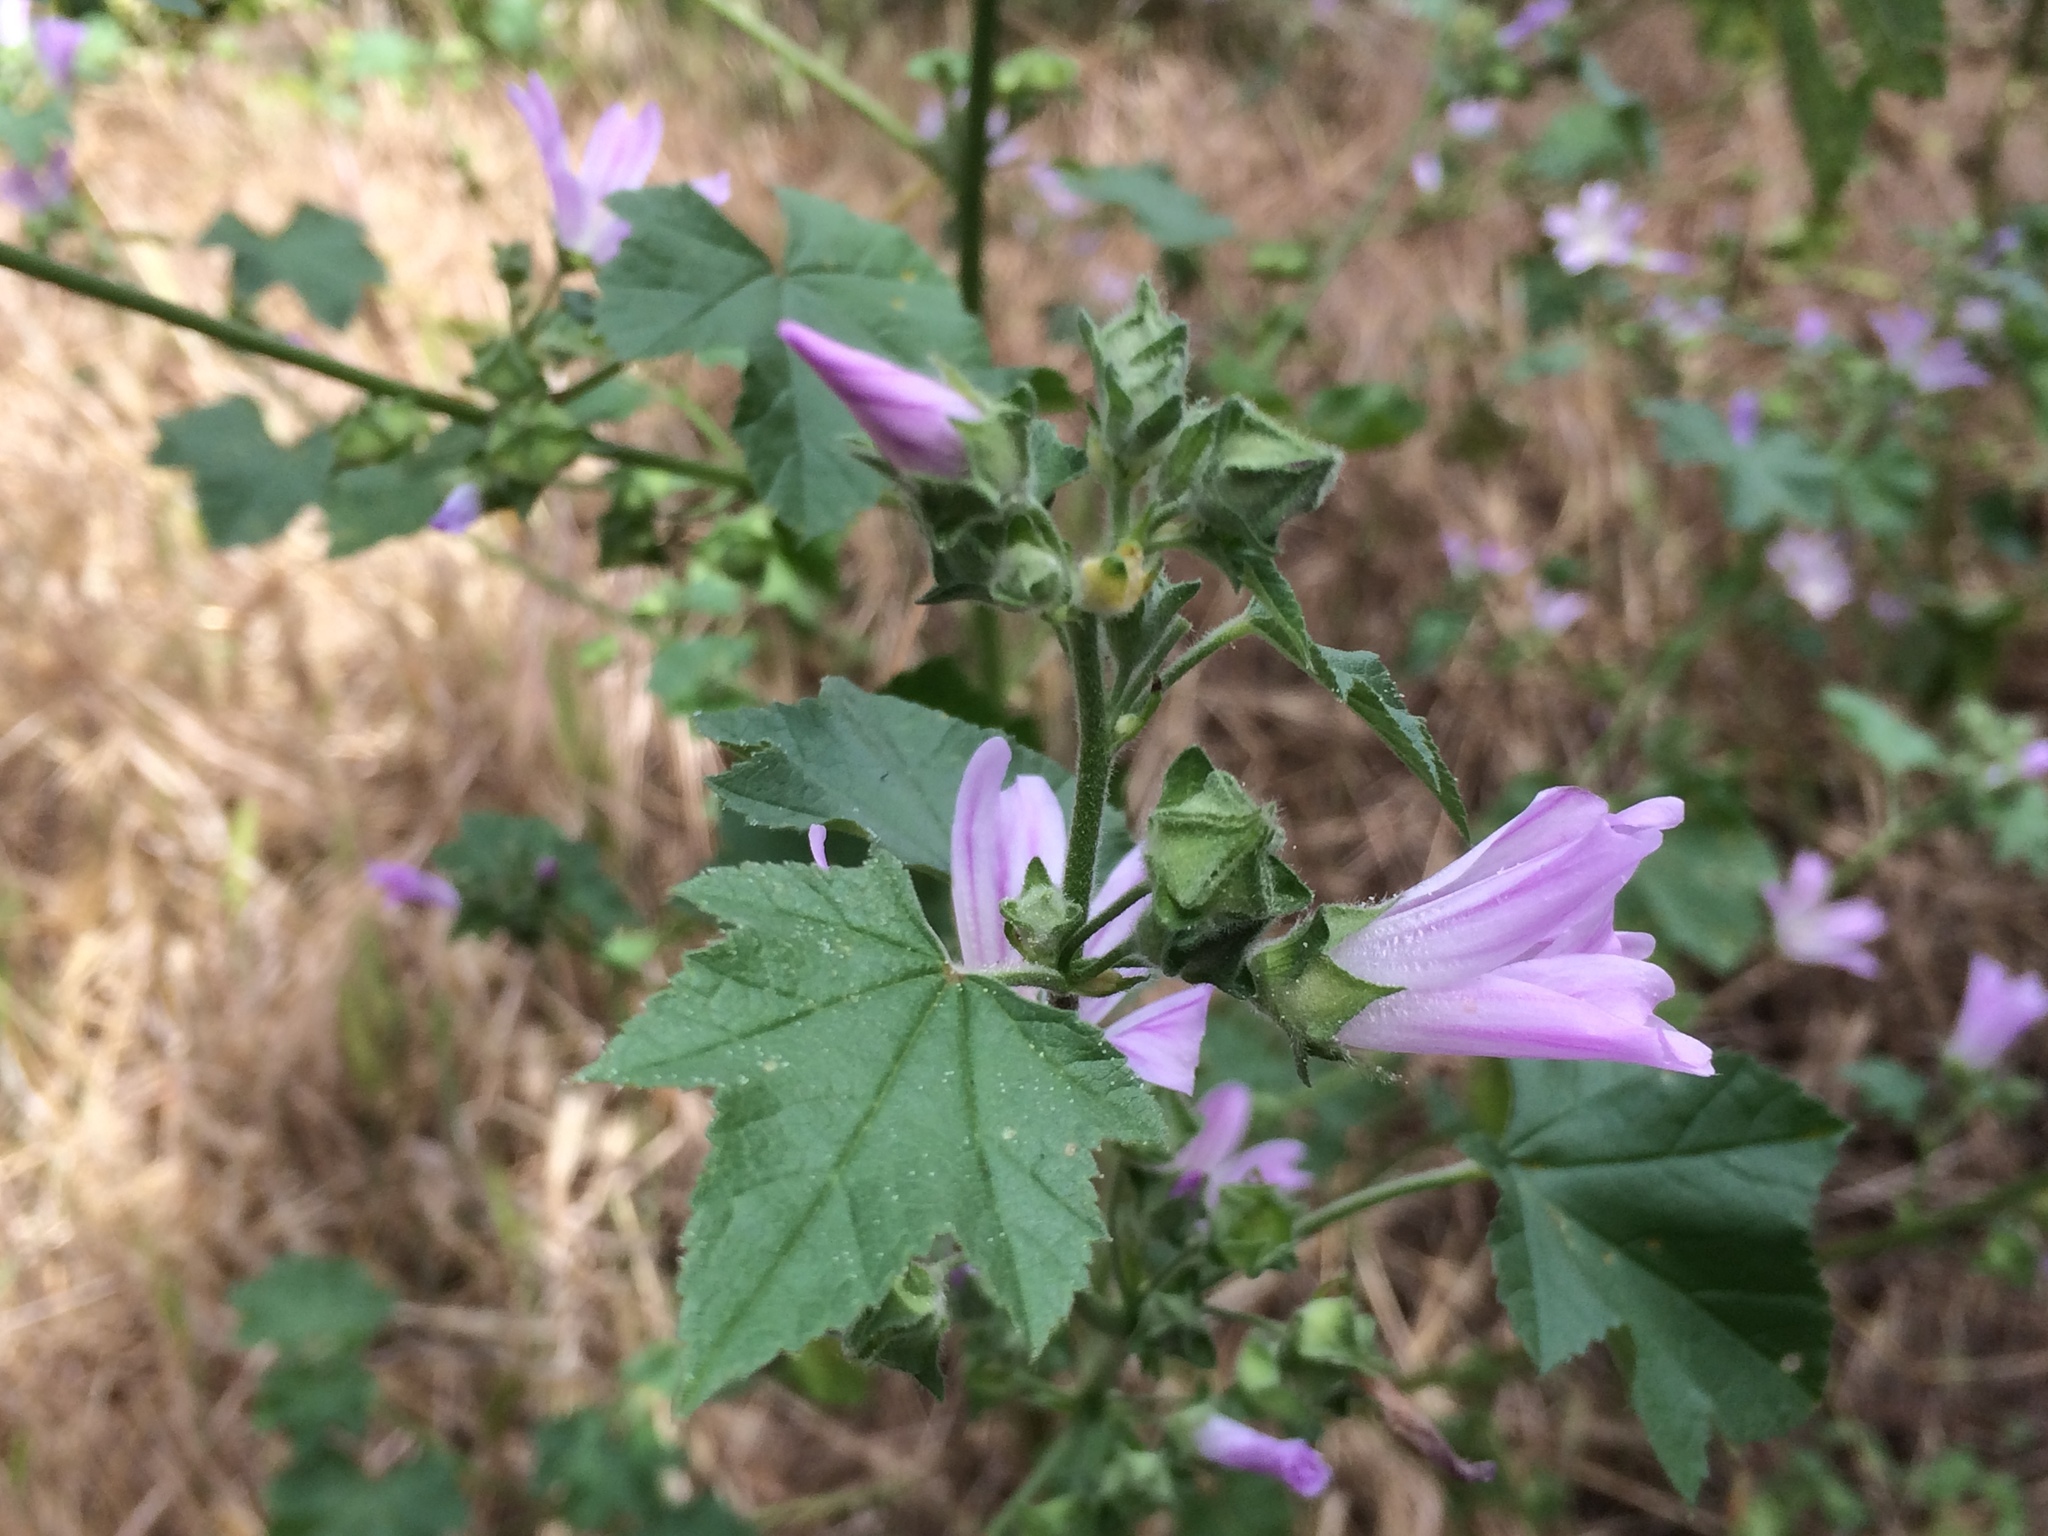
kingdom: Plantae
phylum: Tracheophyta
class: Magnoliopsida
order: Malvales
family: Malvaceae
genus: Malva
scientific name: Malva multiflora
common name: Cheeseweed
